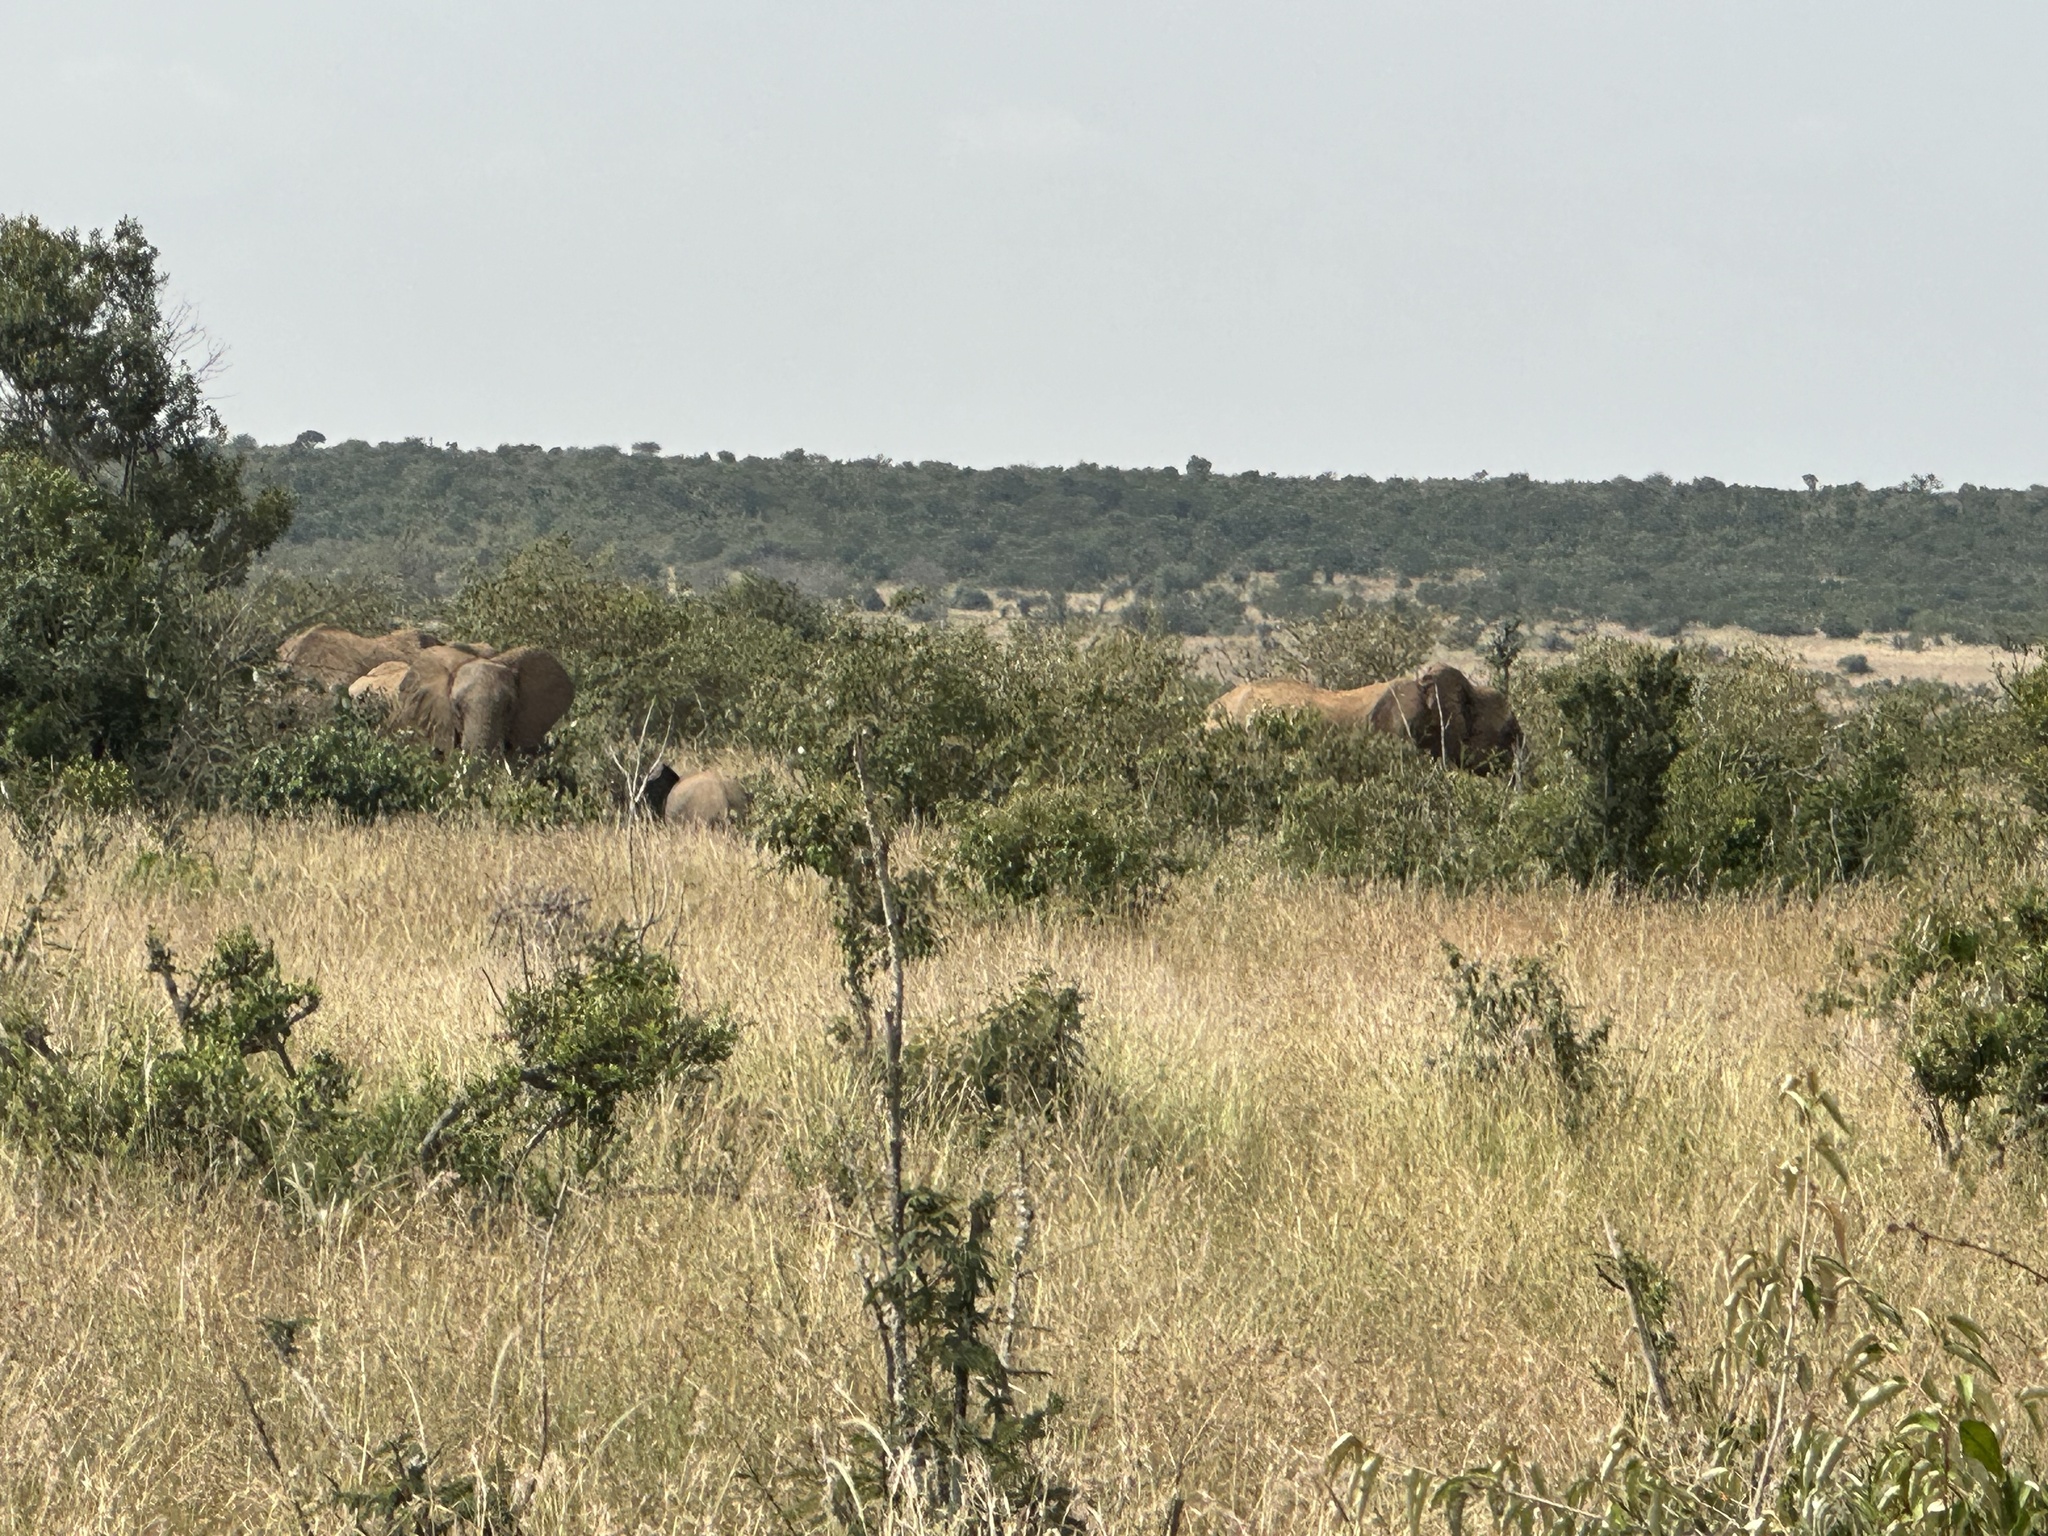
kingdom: Animalia
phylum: Chordata
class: Mammalia
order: Proboscidea
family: Elephantidae
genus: Loxodonta
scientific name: Loxodonta africana
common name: African elephant
